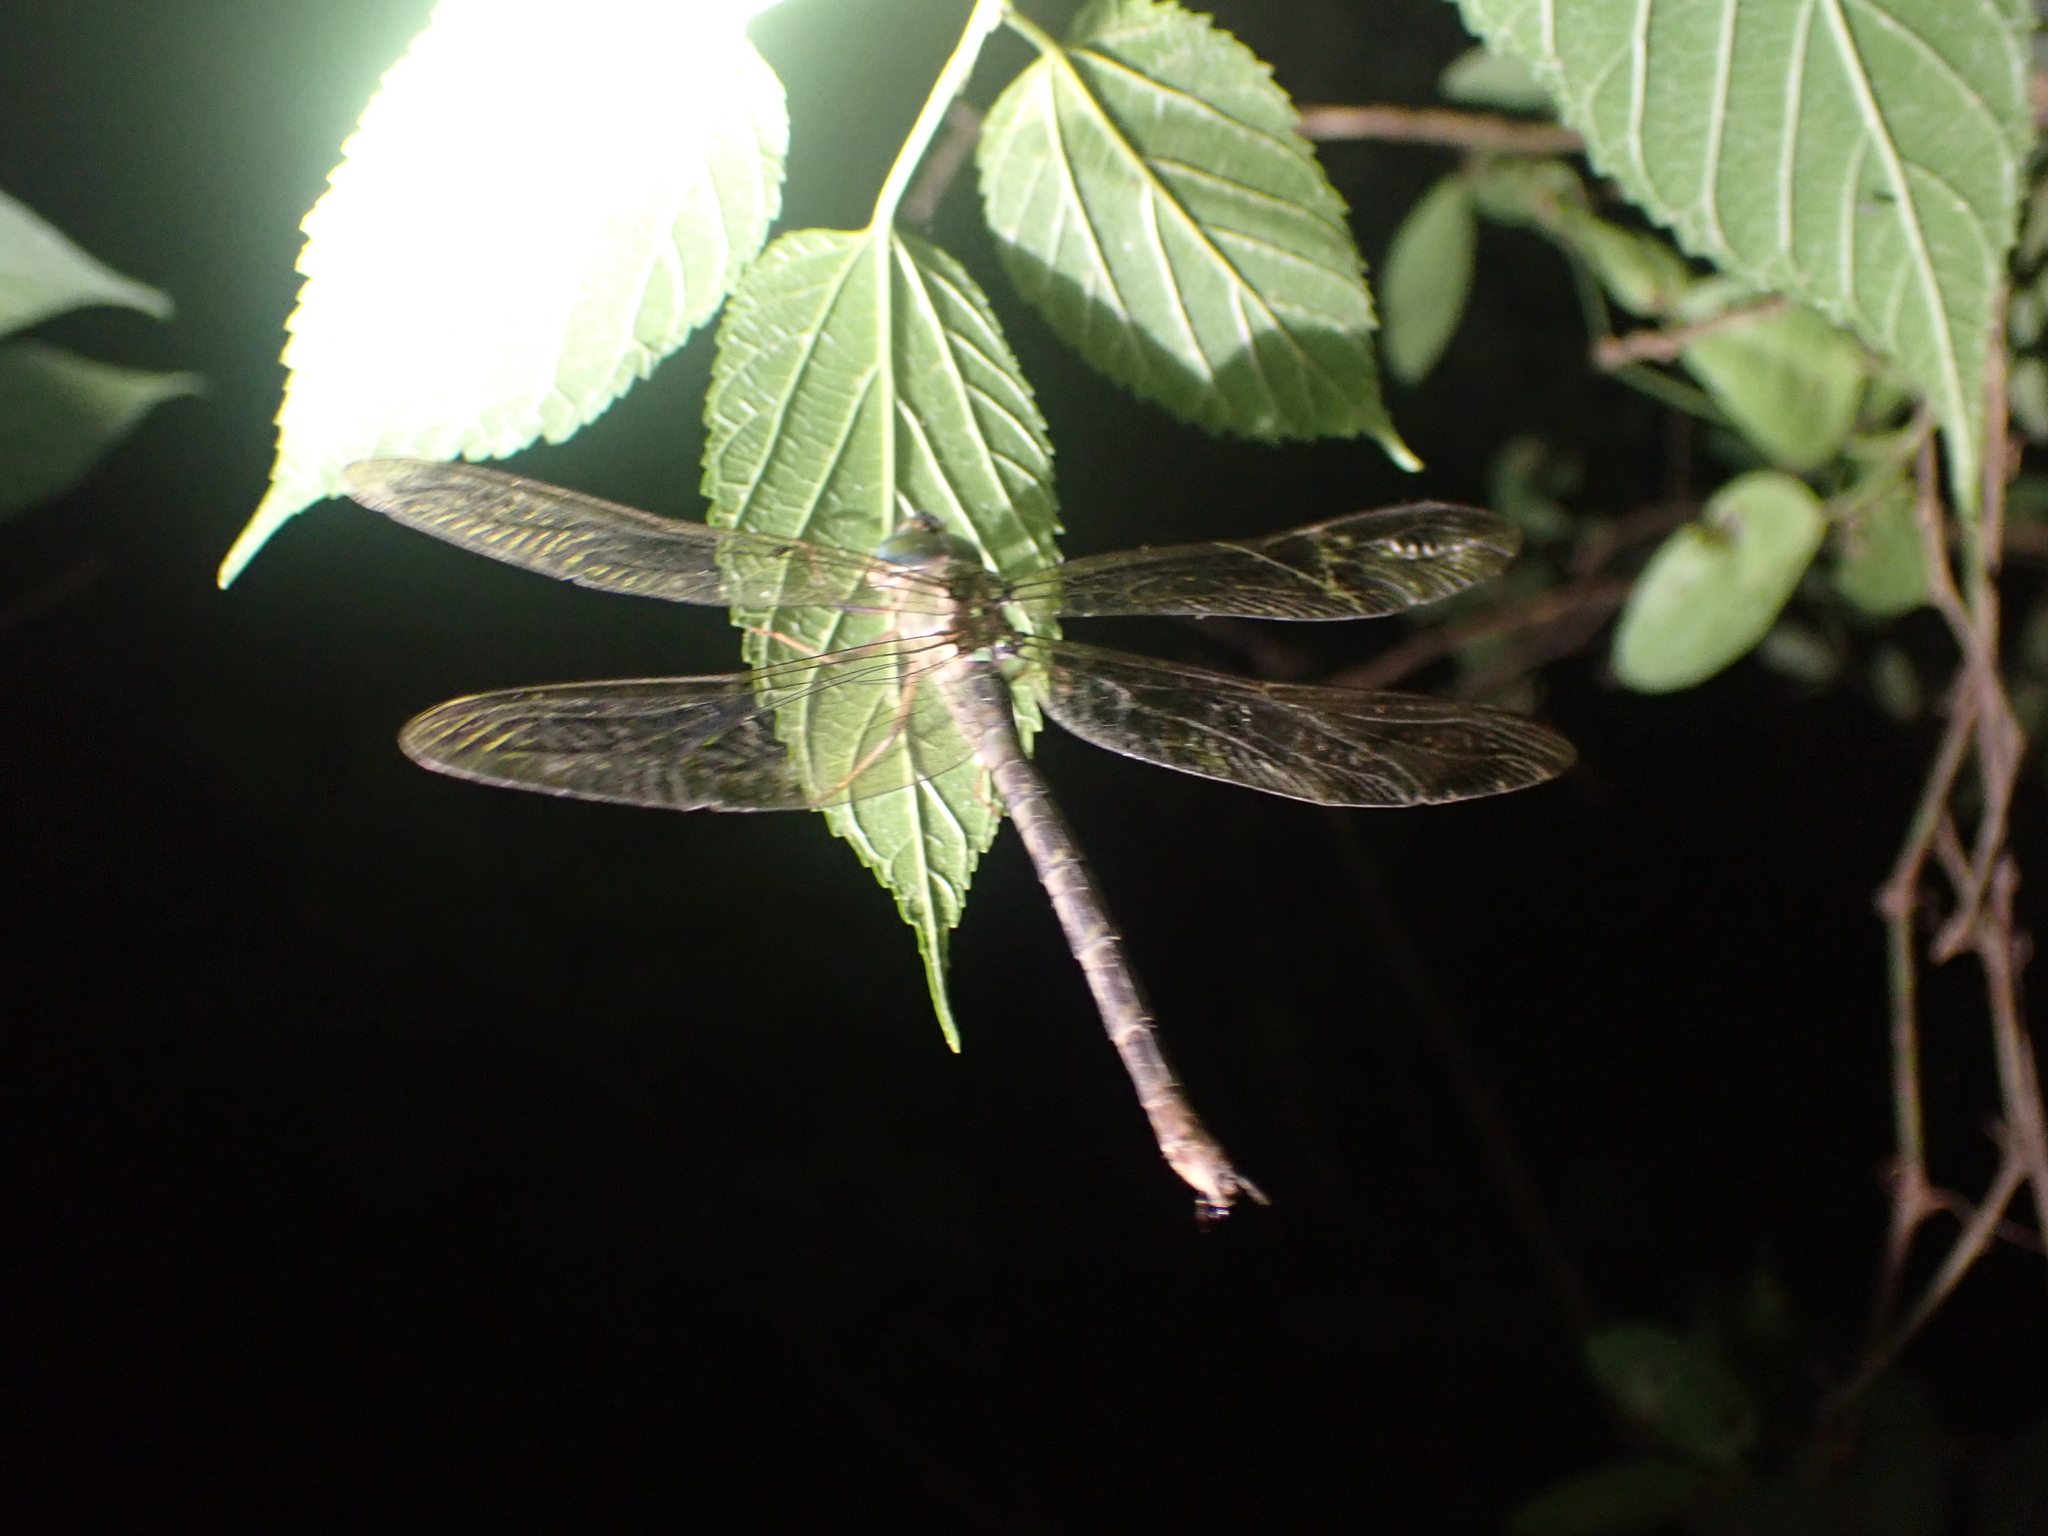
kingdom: Animalia
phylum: Arthropoda
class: Insecta
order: Odonata
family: Aeshnidae
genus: Gynacantha
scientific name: Gynacantha subinterrupta
